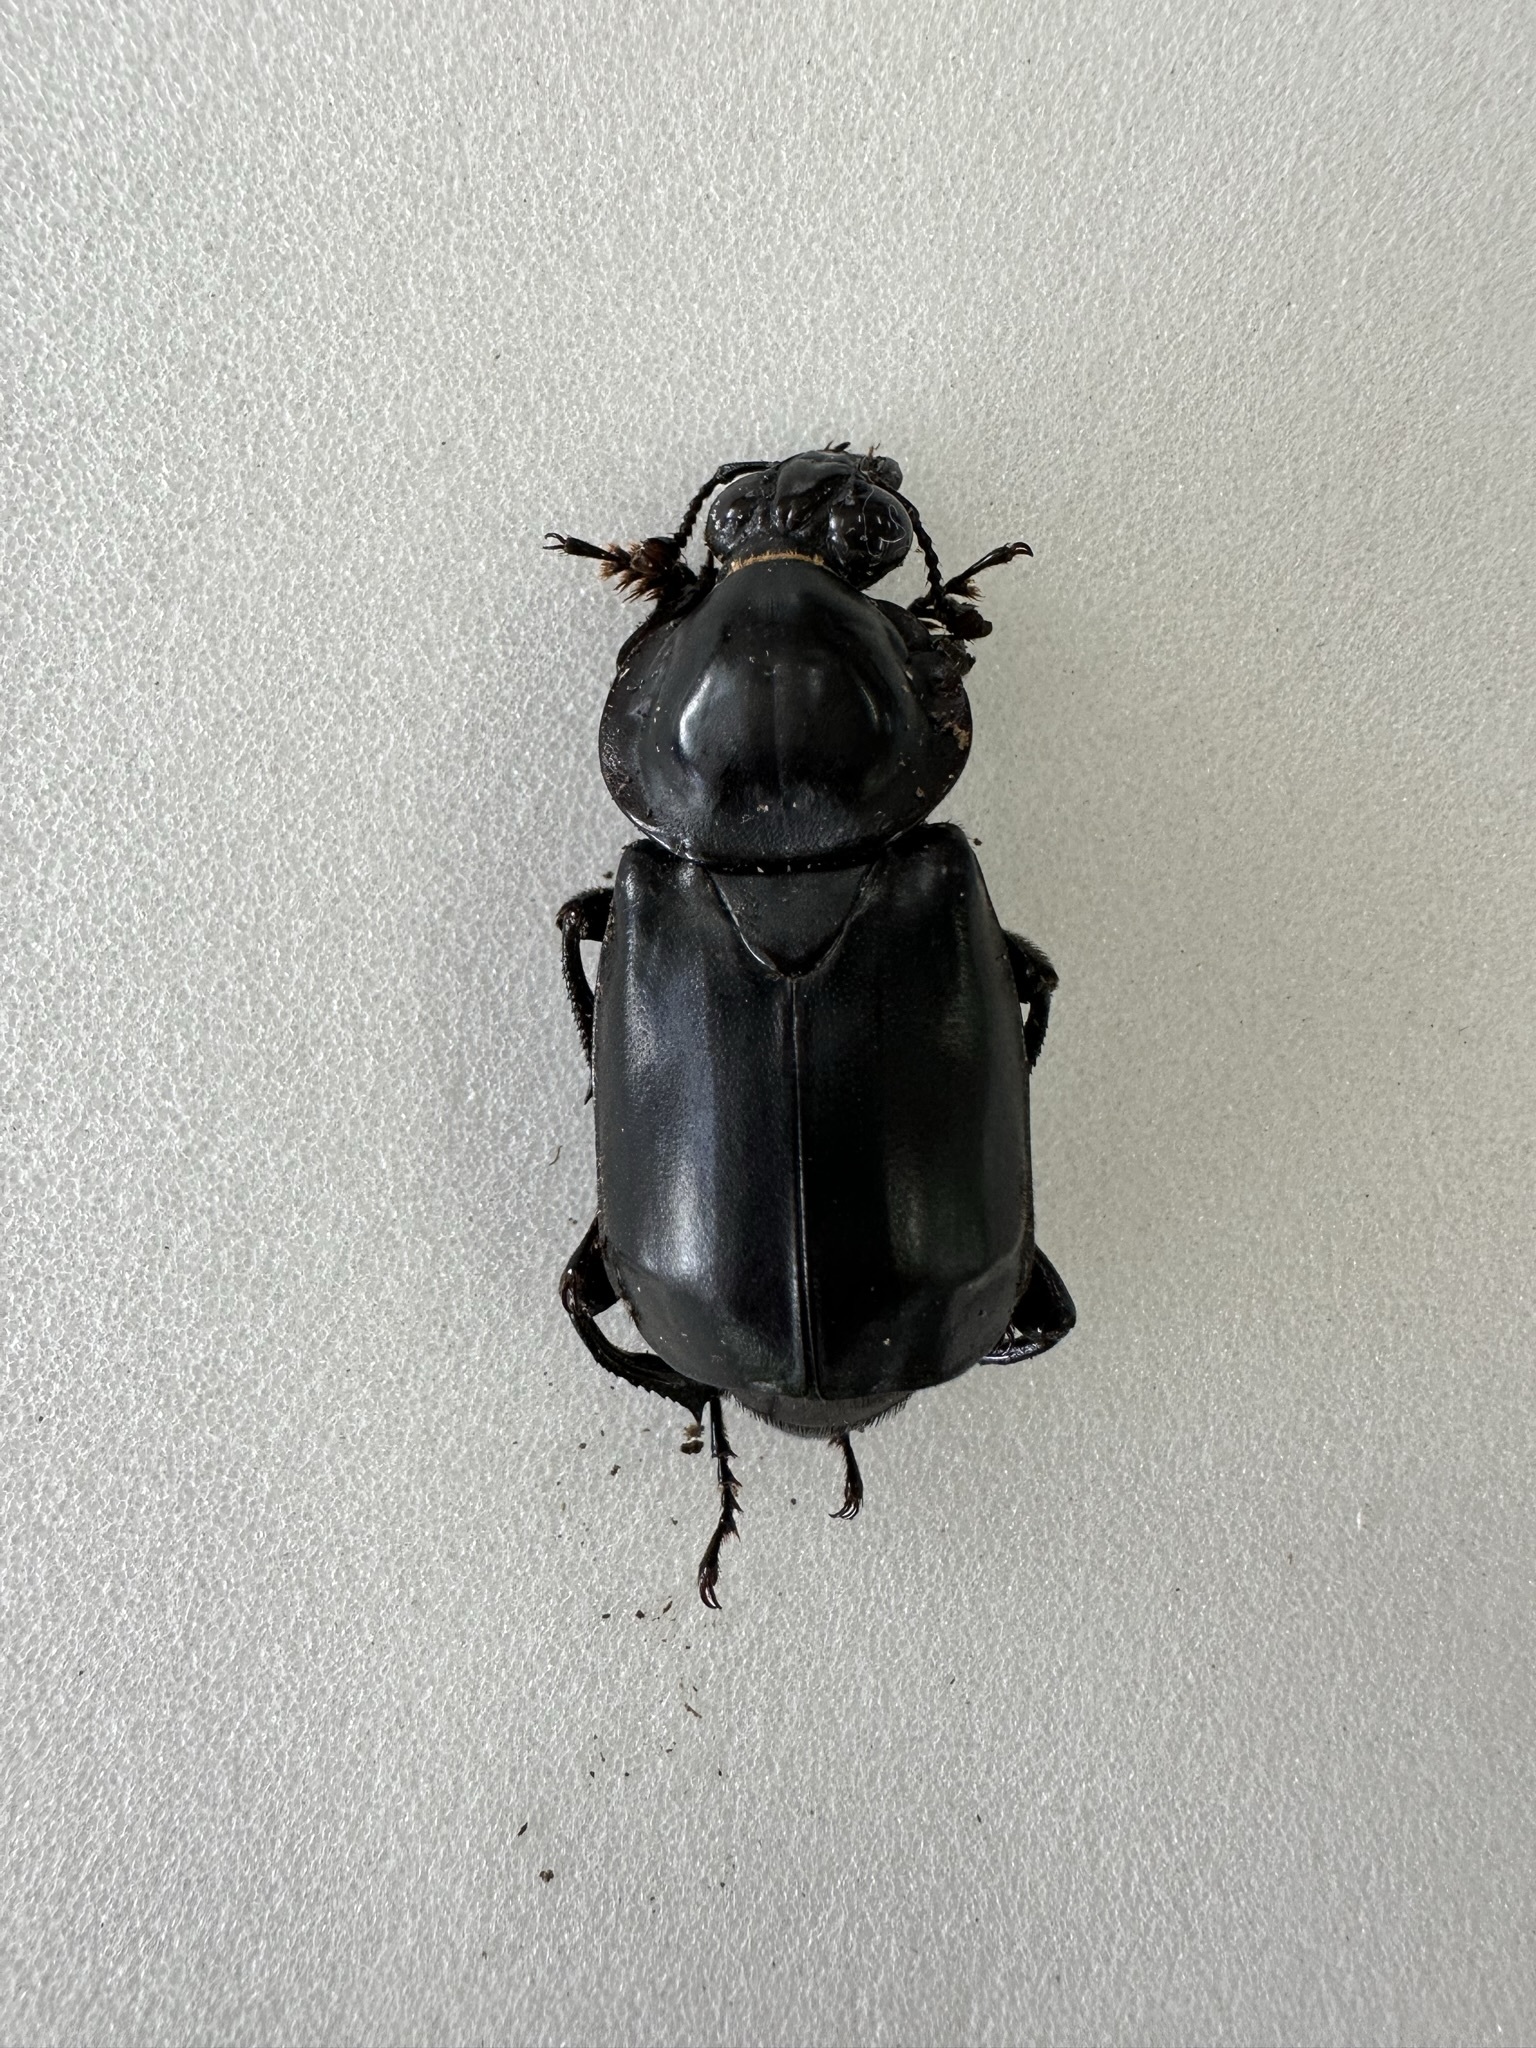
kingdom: Animalia
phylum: Arthropoda
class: Insecta
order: Coleoptera
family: Staphylinidae
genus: Nicrophorus
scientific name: Nicrophorus concolor
